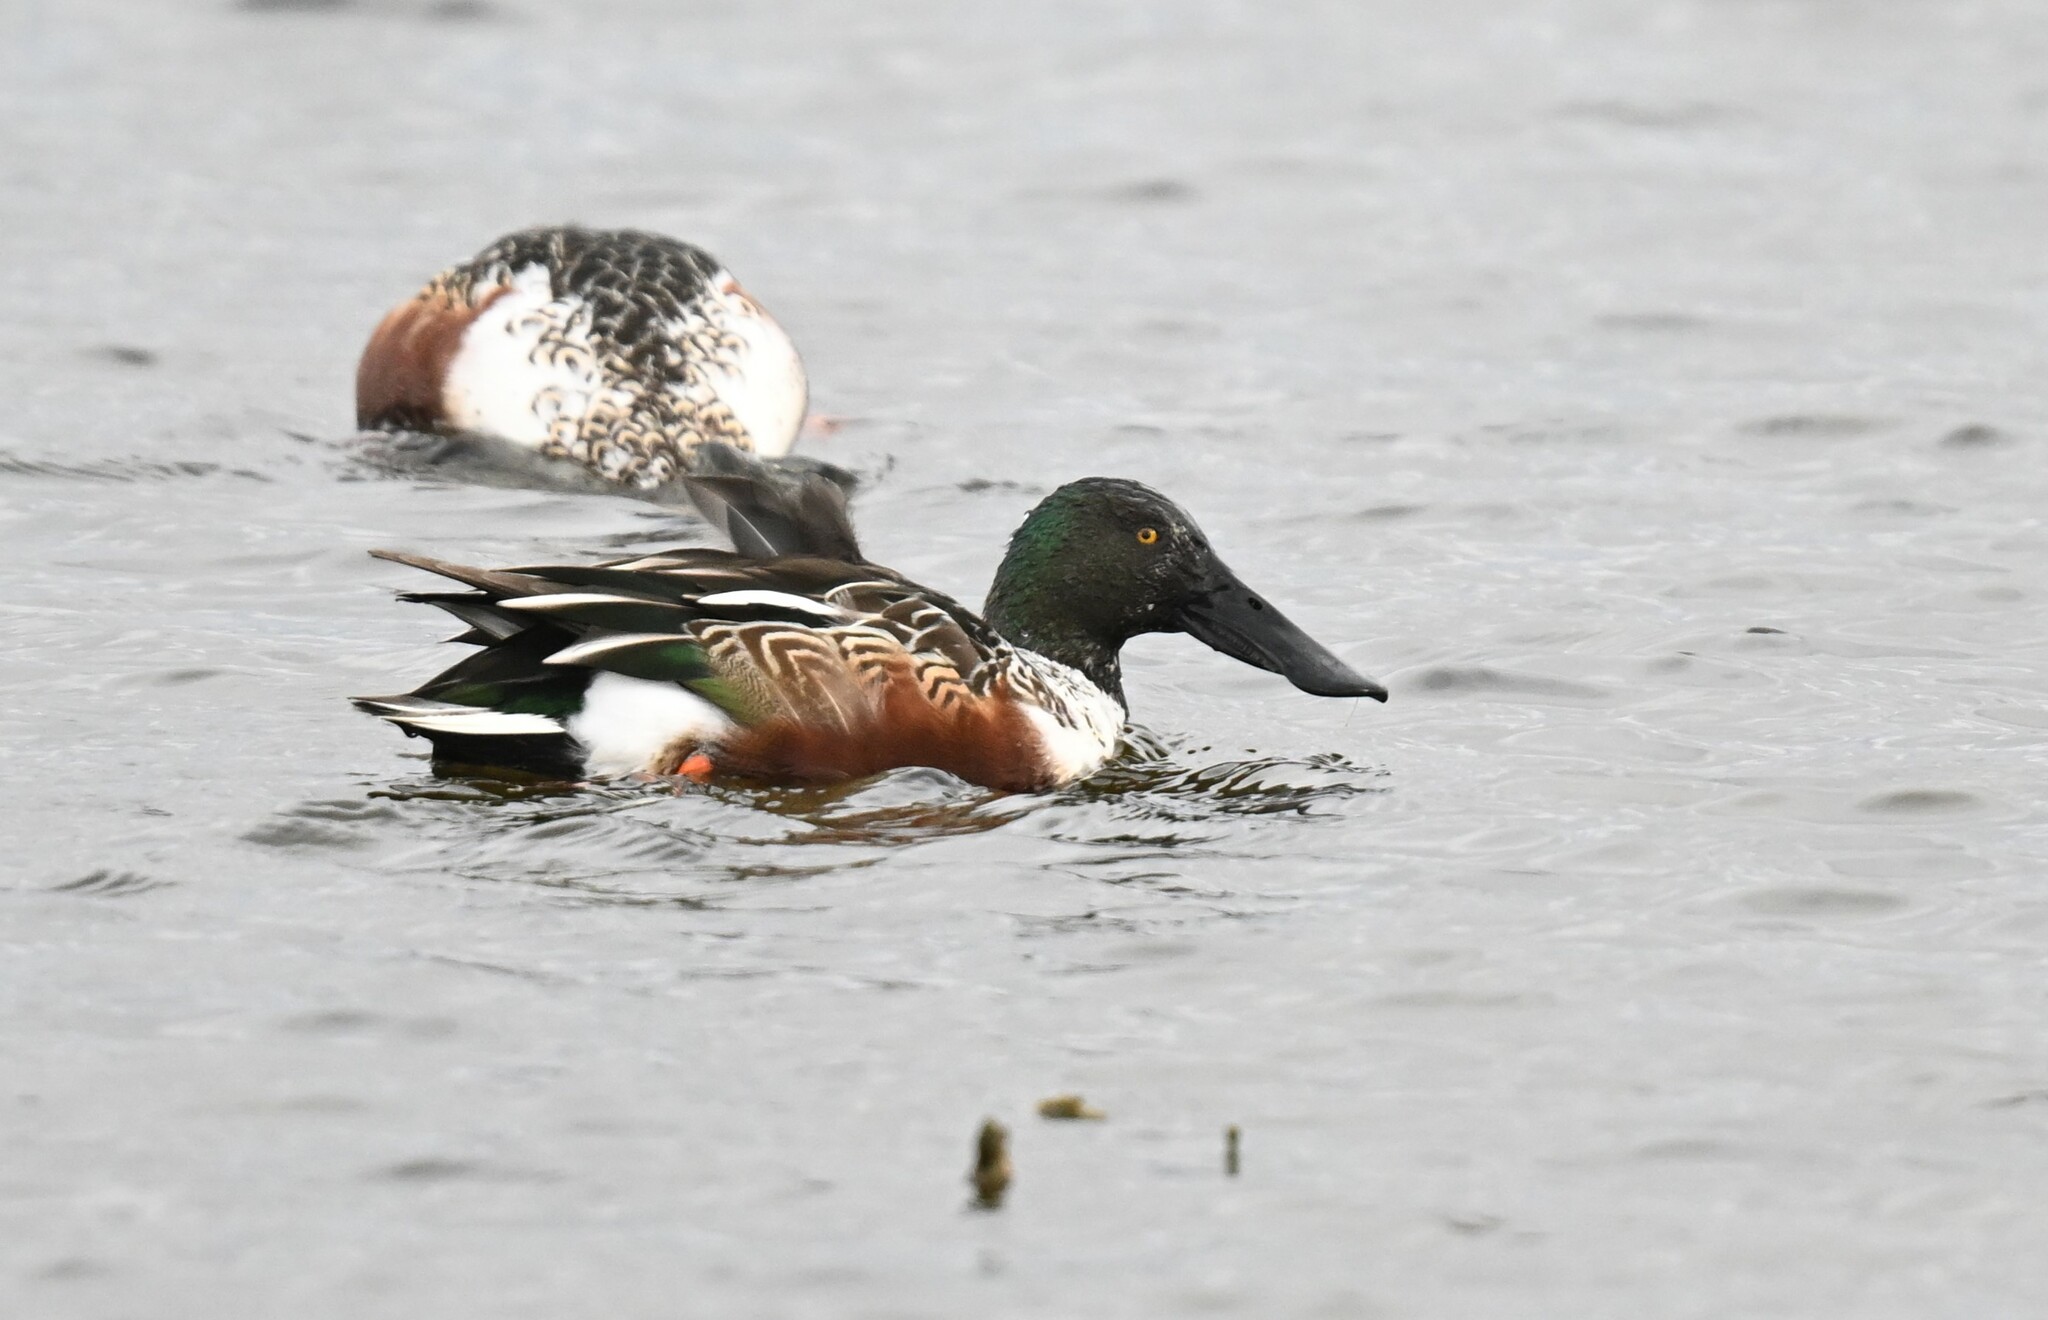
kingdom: Animalia
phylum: Chordata
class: Aves
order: Anseriformes
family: Anatidae
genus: Spatula
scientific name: Spatula clypeata
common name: Northern shoveler
